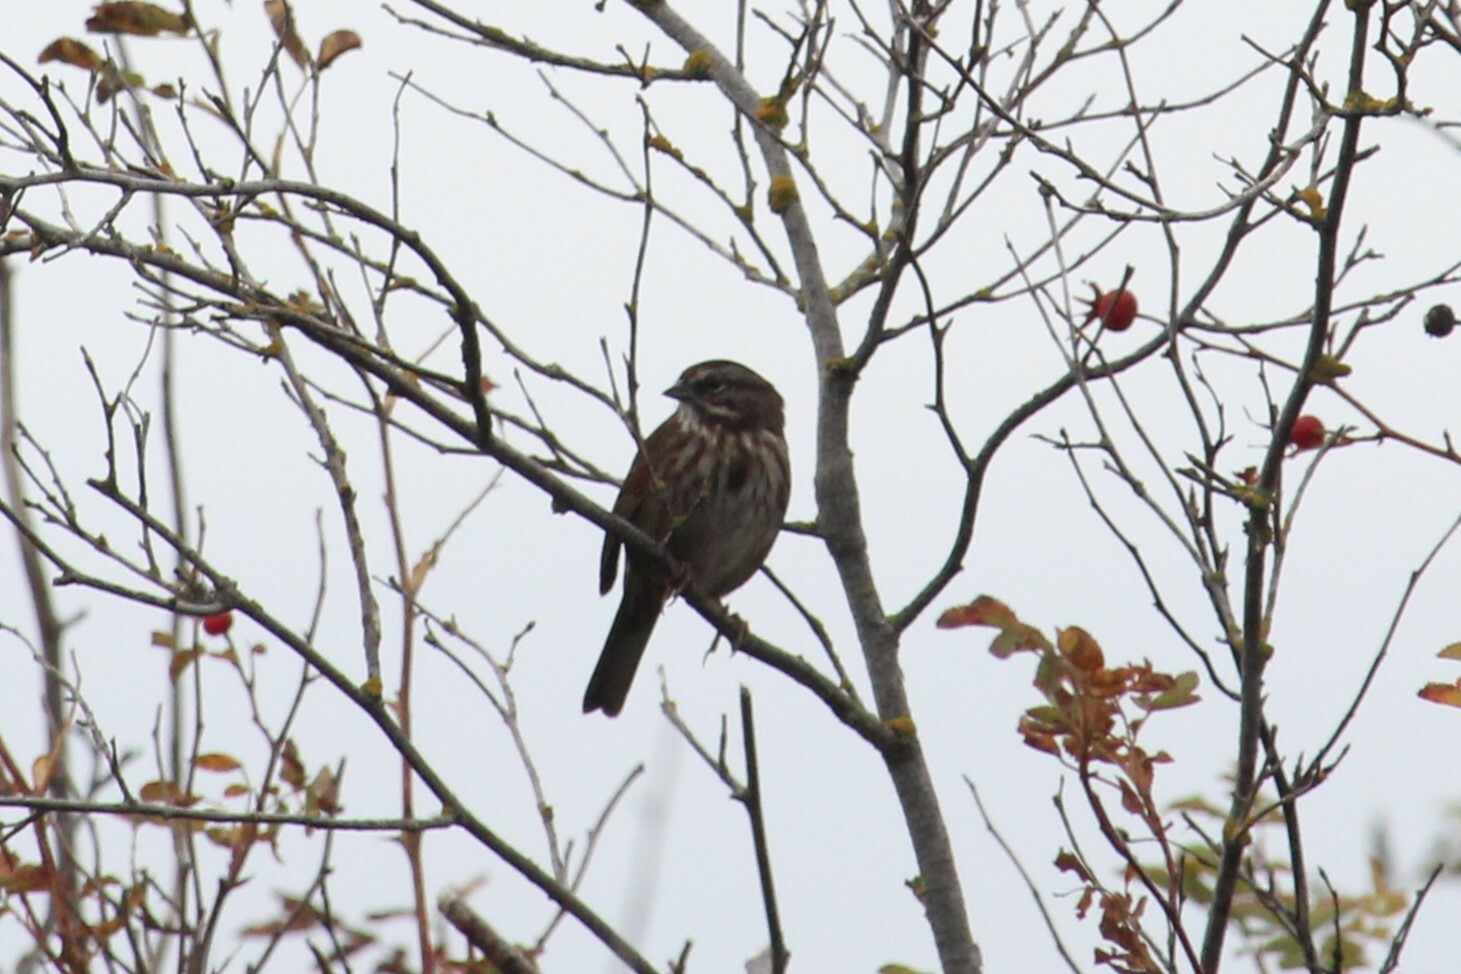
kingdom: Animalia
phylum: Chordata
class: Aves
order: Passeriformes
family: Passerellidae
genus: Melospiza
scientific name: Melospiza melodia
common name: Song sparrow
